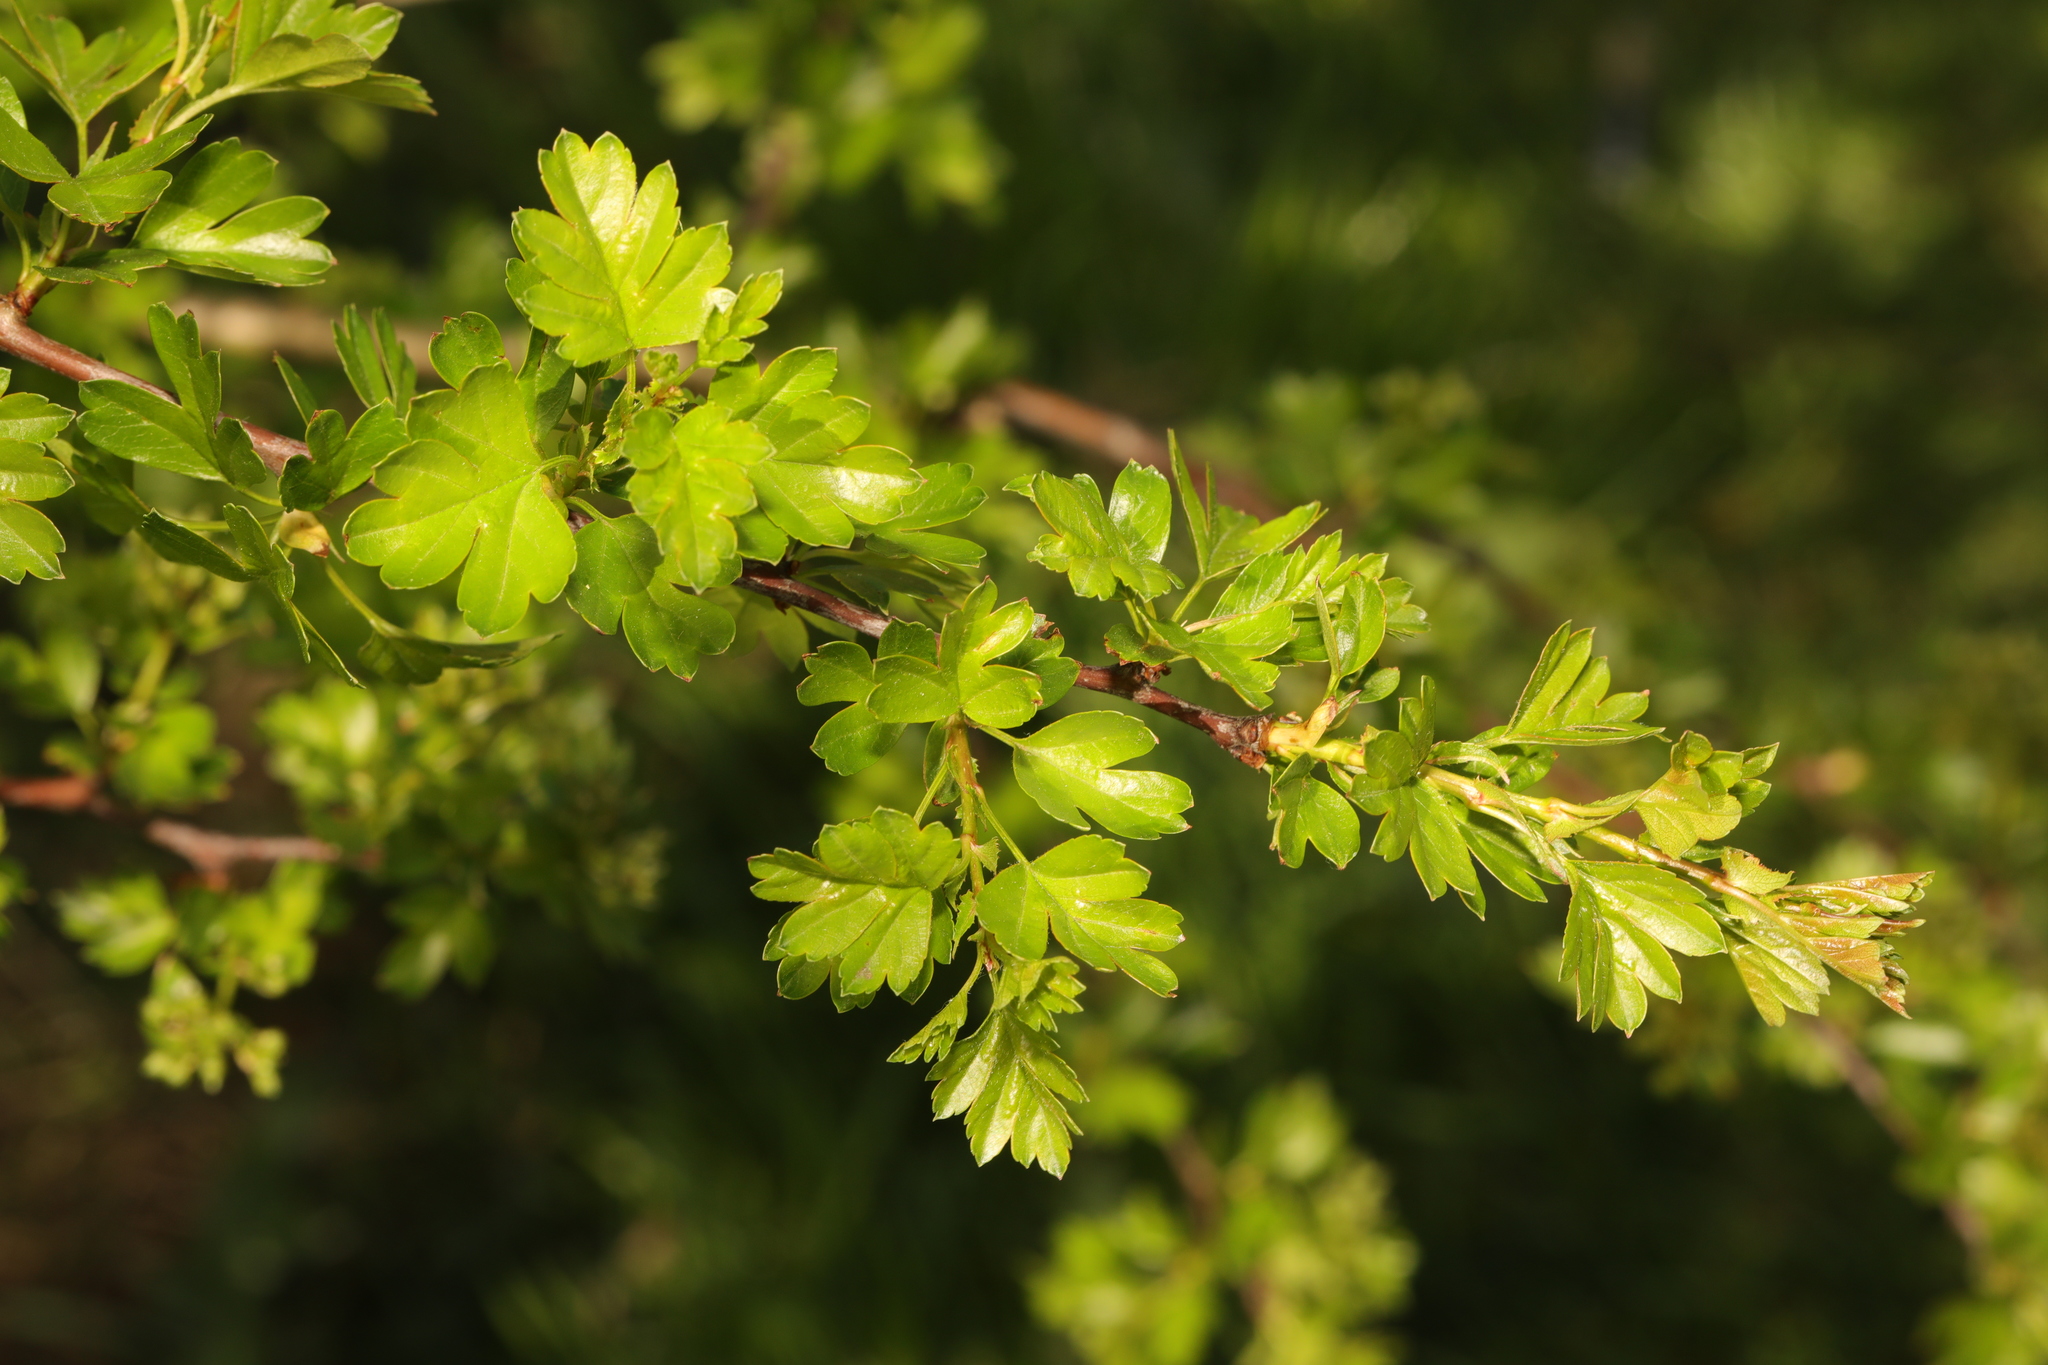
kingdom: Plantae
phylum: Tracheophyta
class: Magnoliopsida
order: Rosales
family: Rosaceae
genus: Crataegus
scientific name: Crataegus monogyna
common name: Hawthorn
